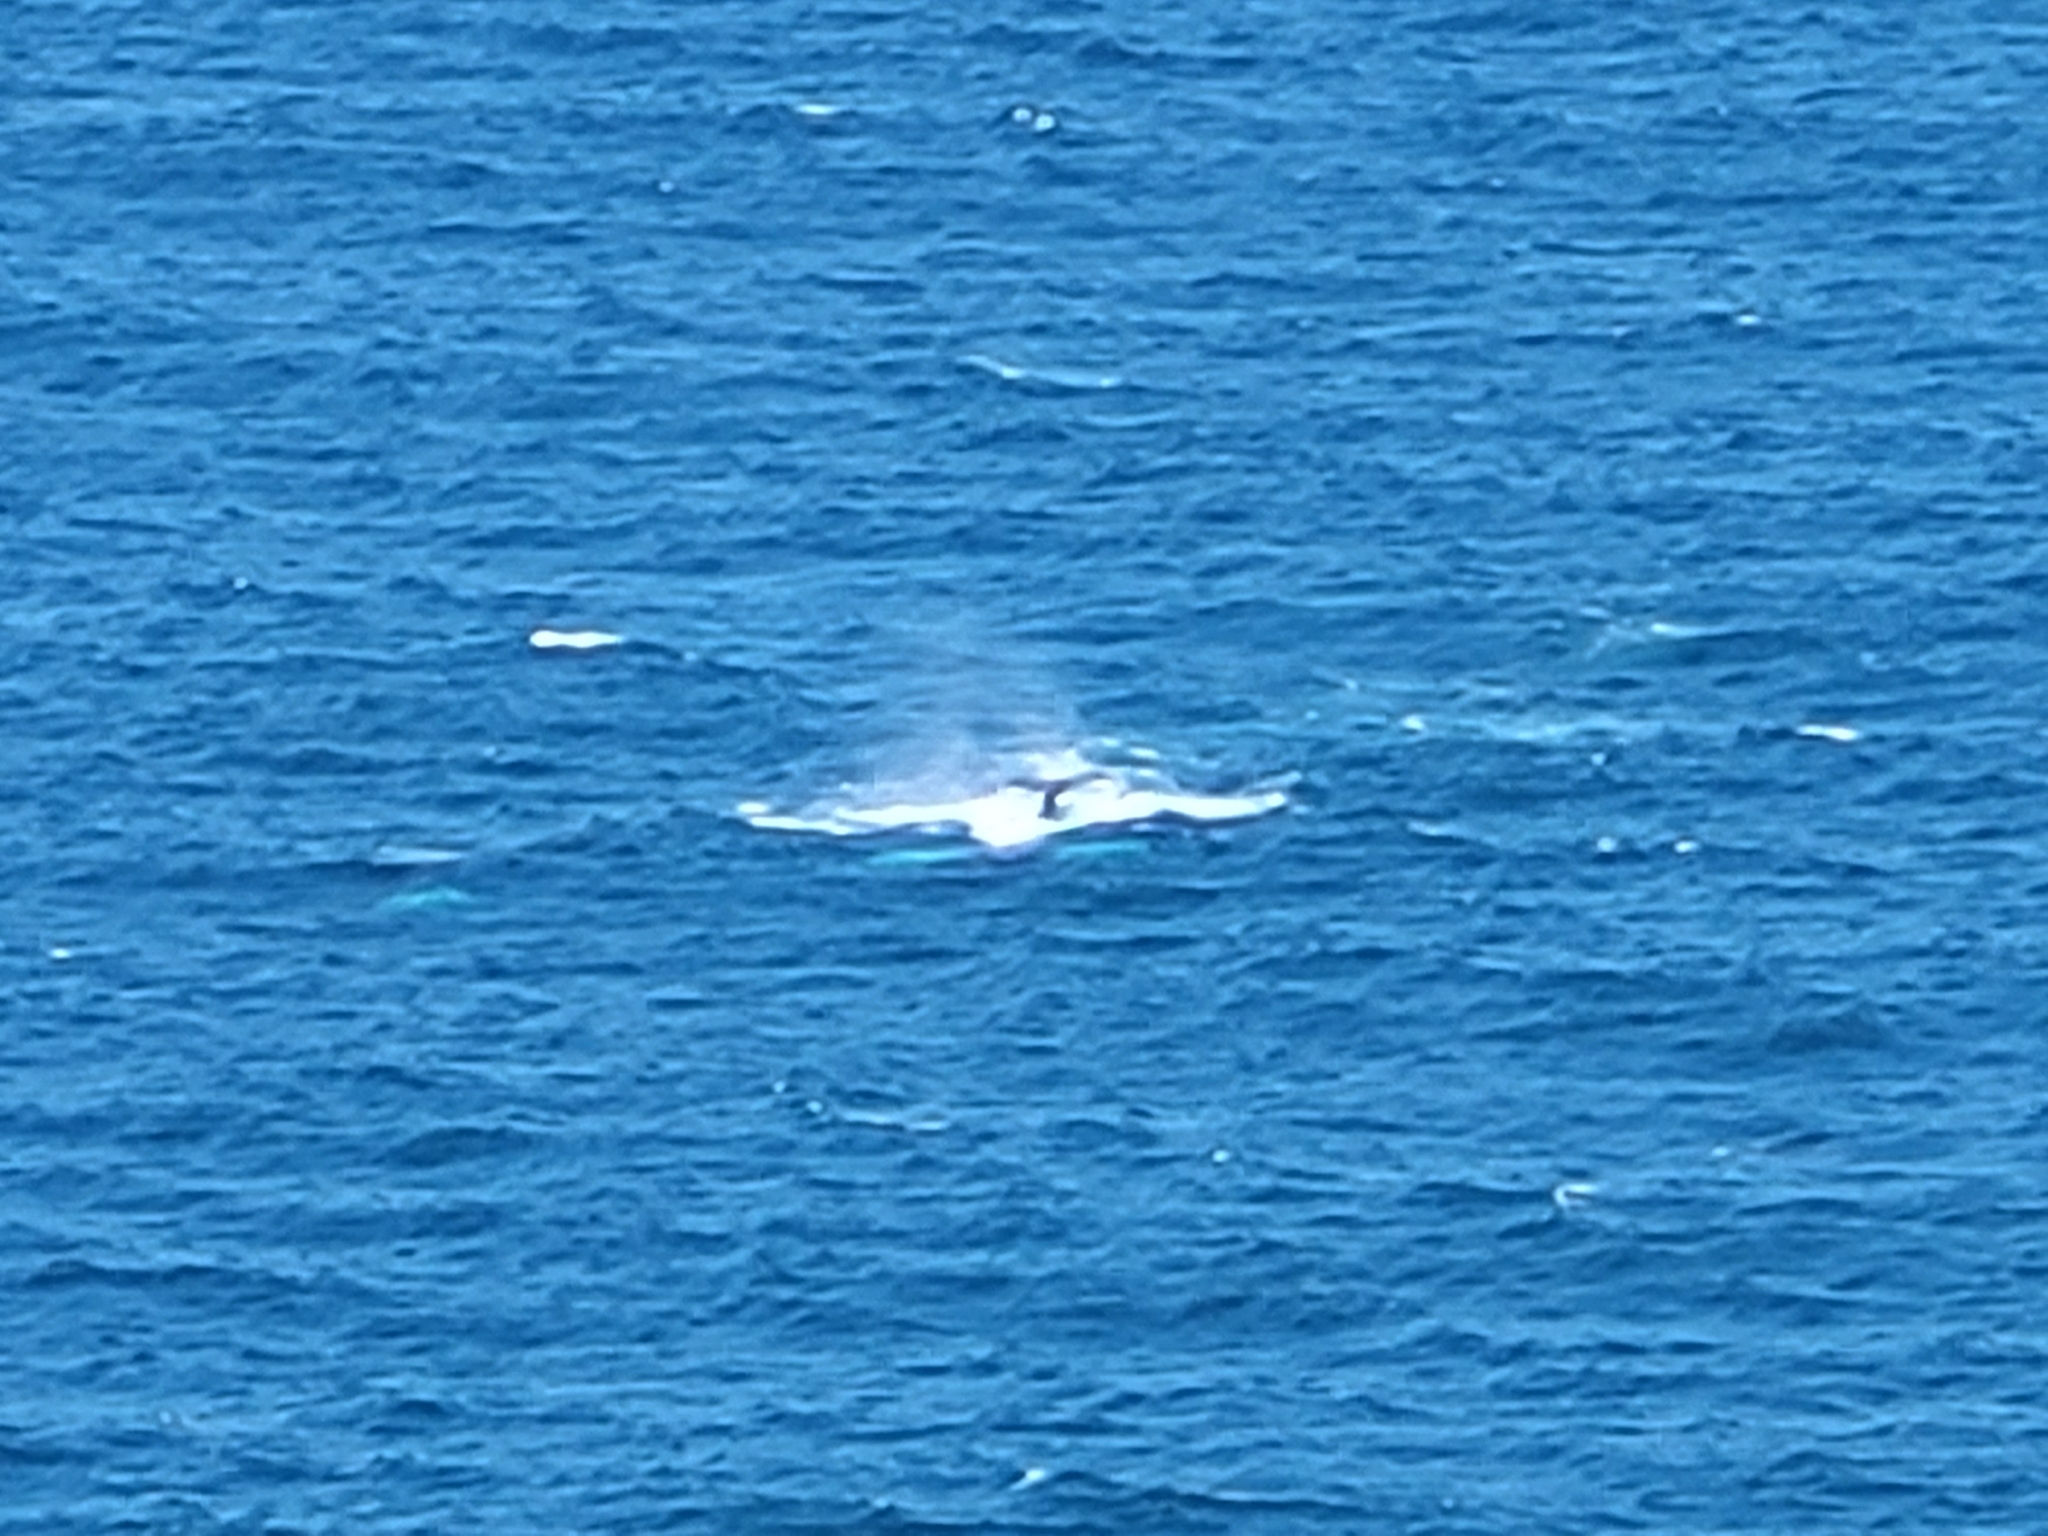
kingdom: Animalia
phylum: Chordata
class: Mammalia
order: Cetacea
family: Balaenopteridae
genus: Megaptera
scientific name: Megaptera novaeangliae
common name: Humpback whale
